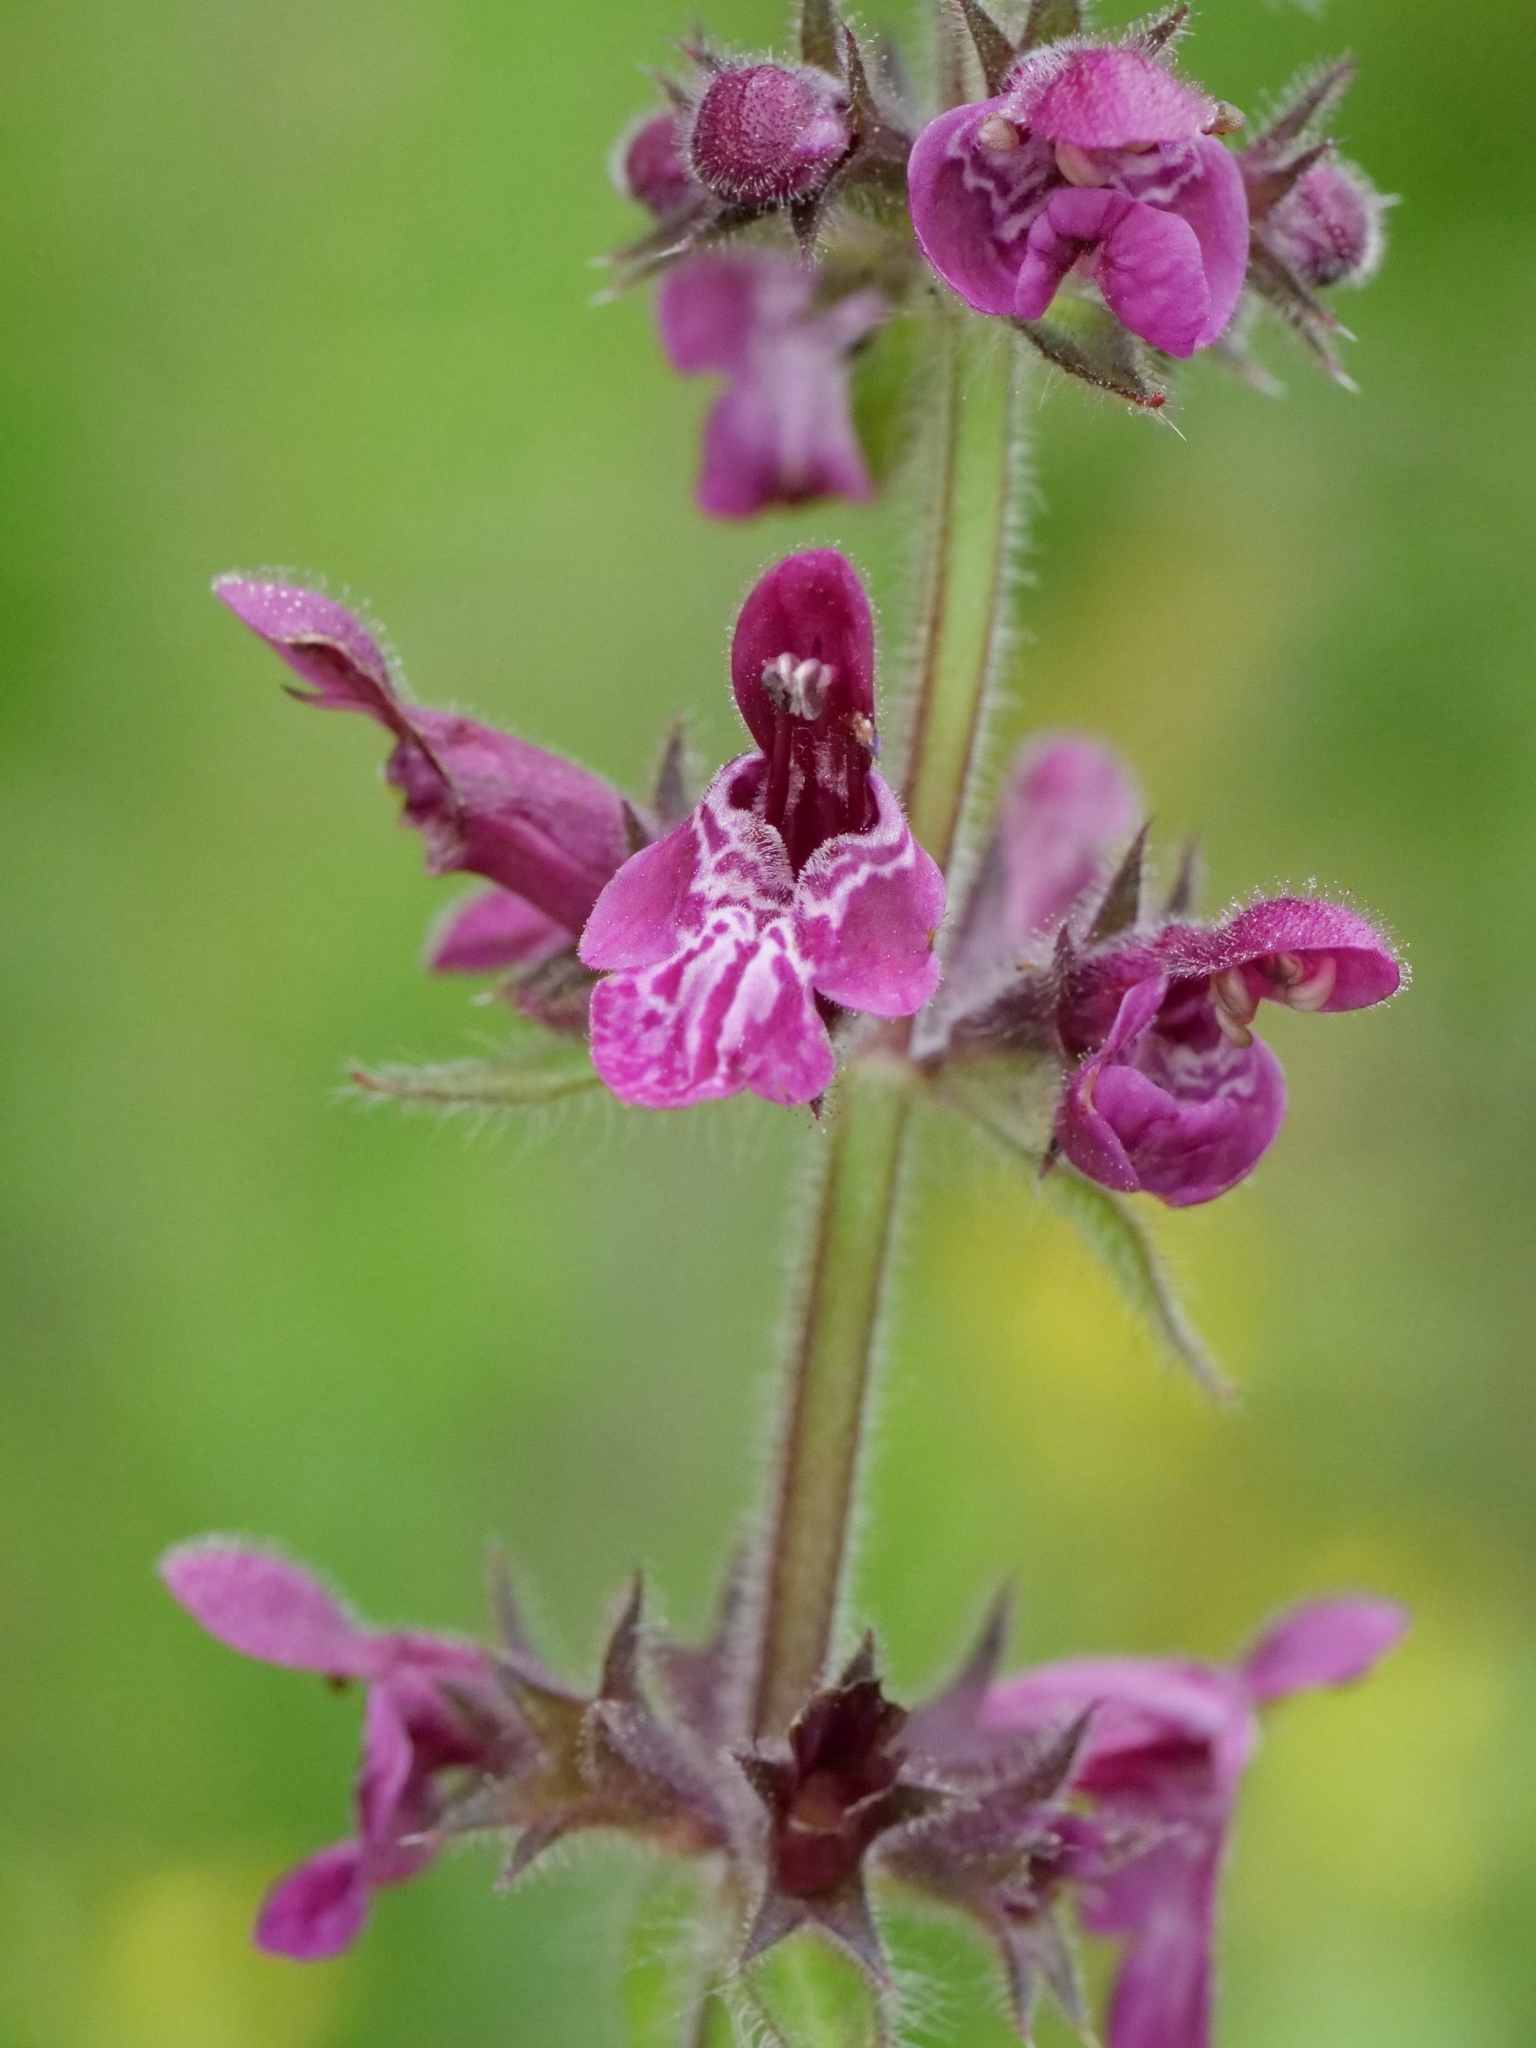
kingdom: Plantae
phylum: Tracheophyta
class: Magnoliopsida
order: Lamiales
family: Lamiaceae
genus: Stachys
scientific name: Stachys sylvatica
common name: Hedge woundwort
